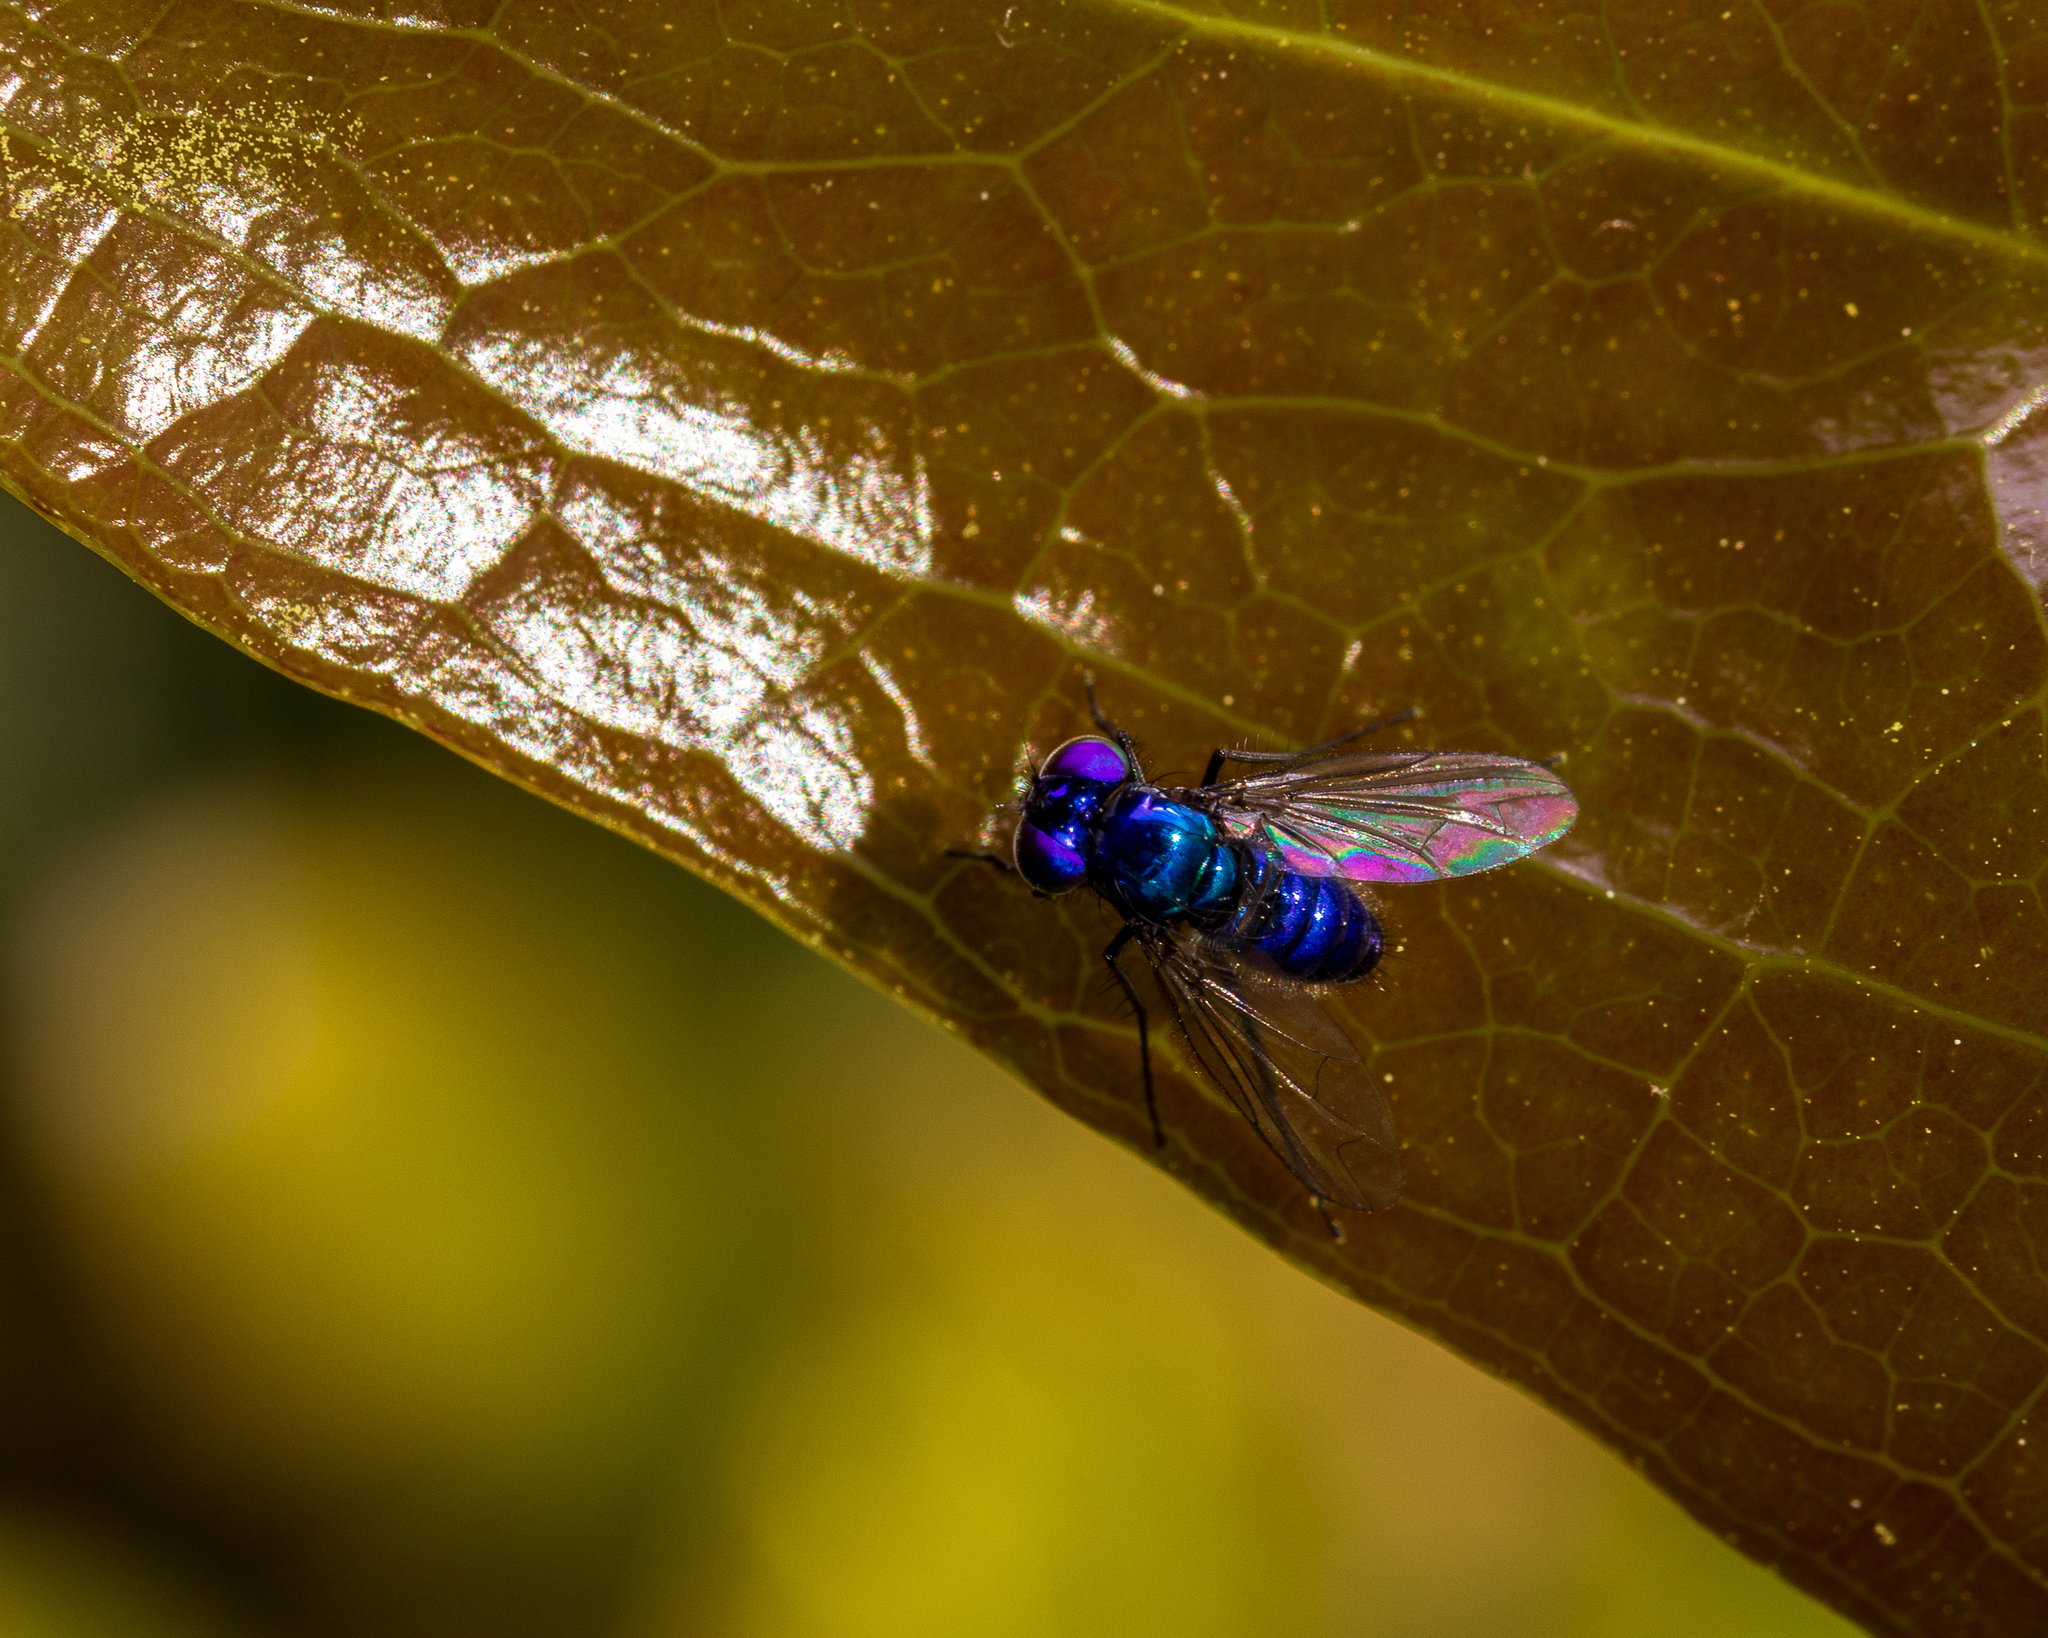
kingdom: Animalia
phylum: Arthropoda
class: Insecta
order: Diptera
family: Dolichopodidae
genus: Condylostylus
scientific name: Condylostylus mundus
